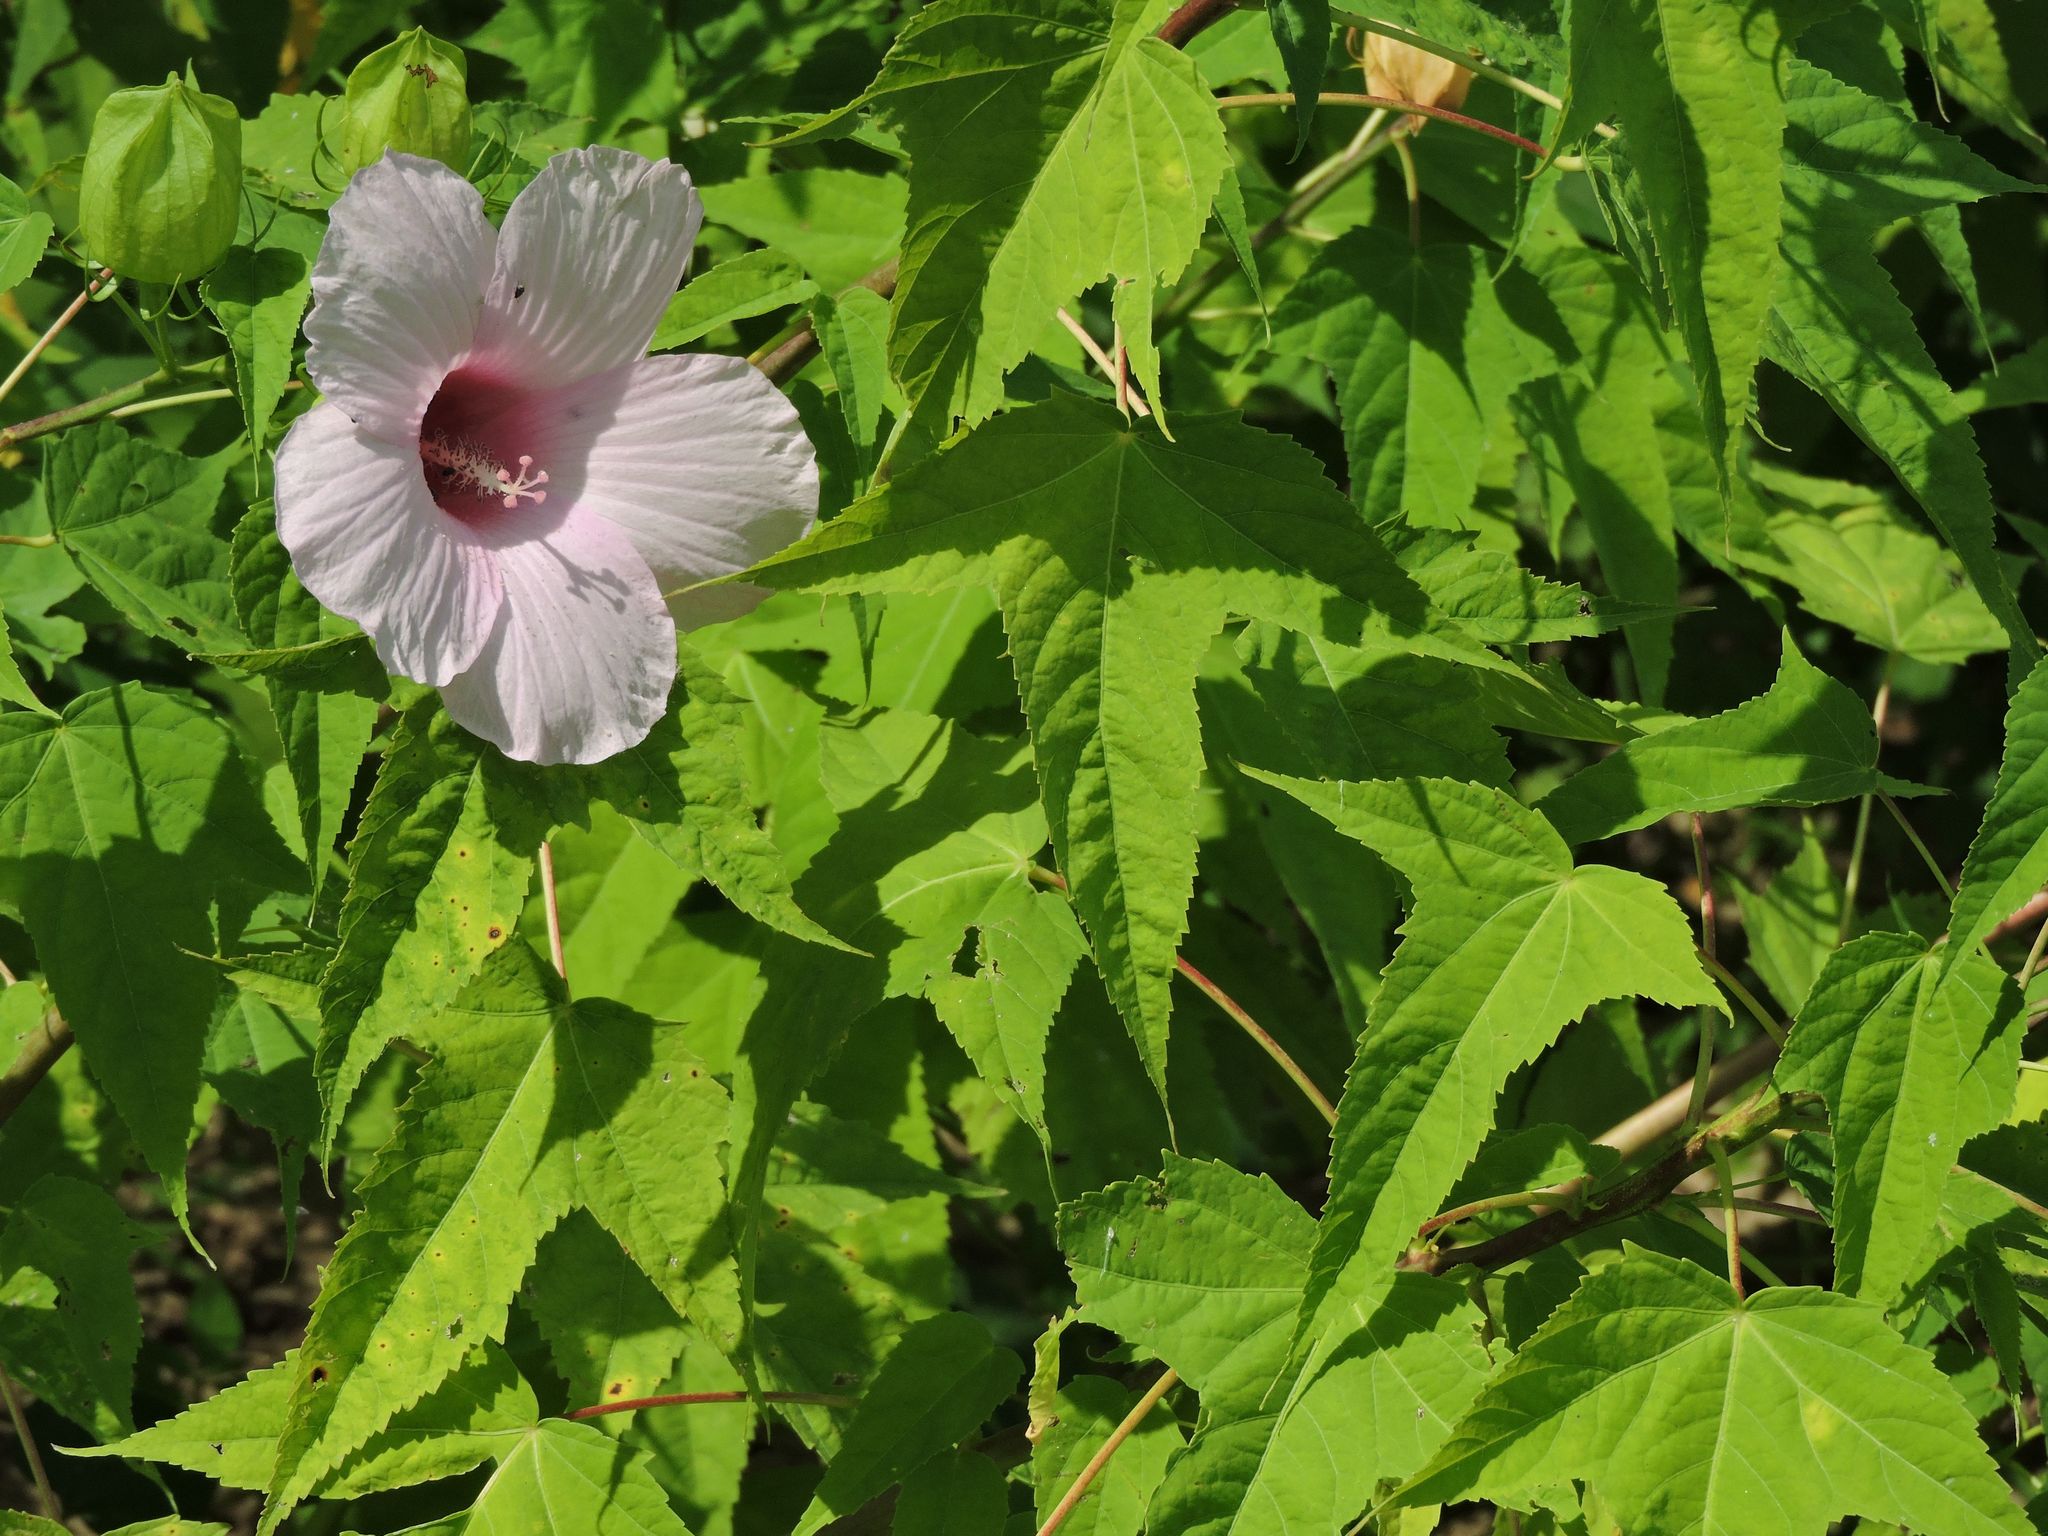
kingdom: Plantae
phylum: Tracheophyta
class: Magnoliopsida
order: Malvales
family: Malvaceae
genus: Hibiscus
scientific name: Hibiscus laevis
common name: Scarlet rose-mallow
